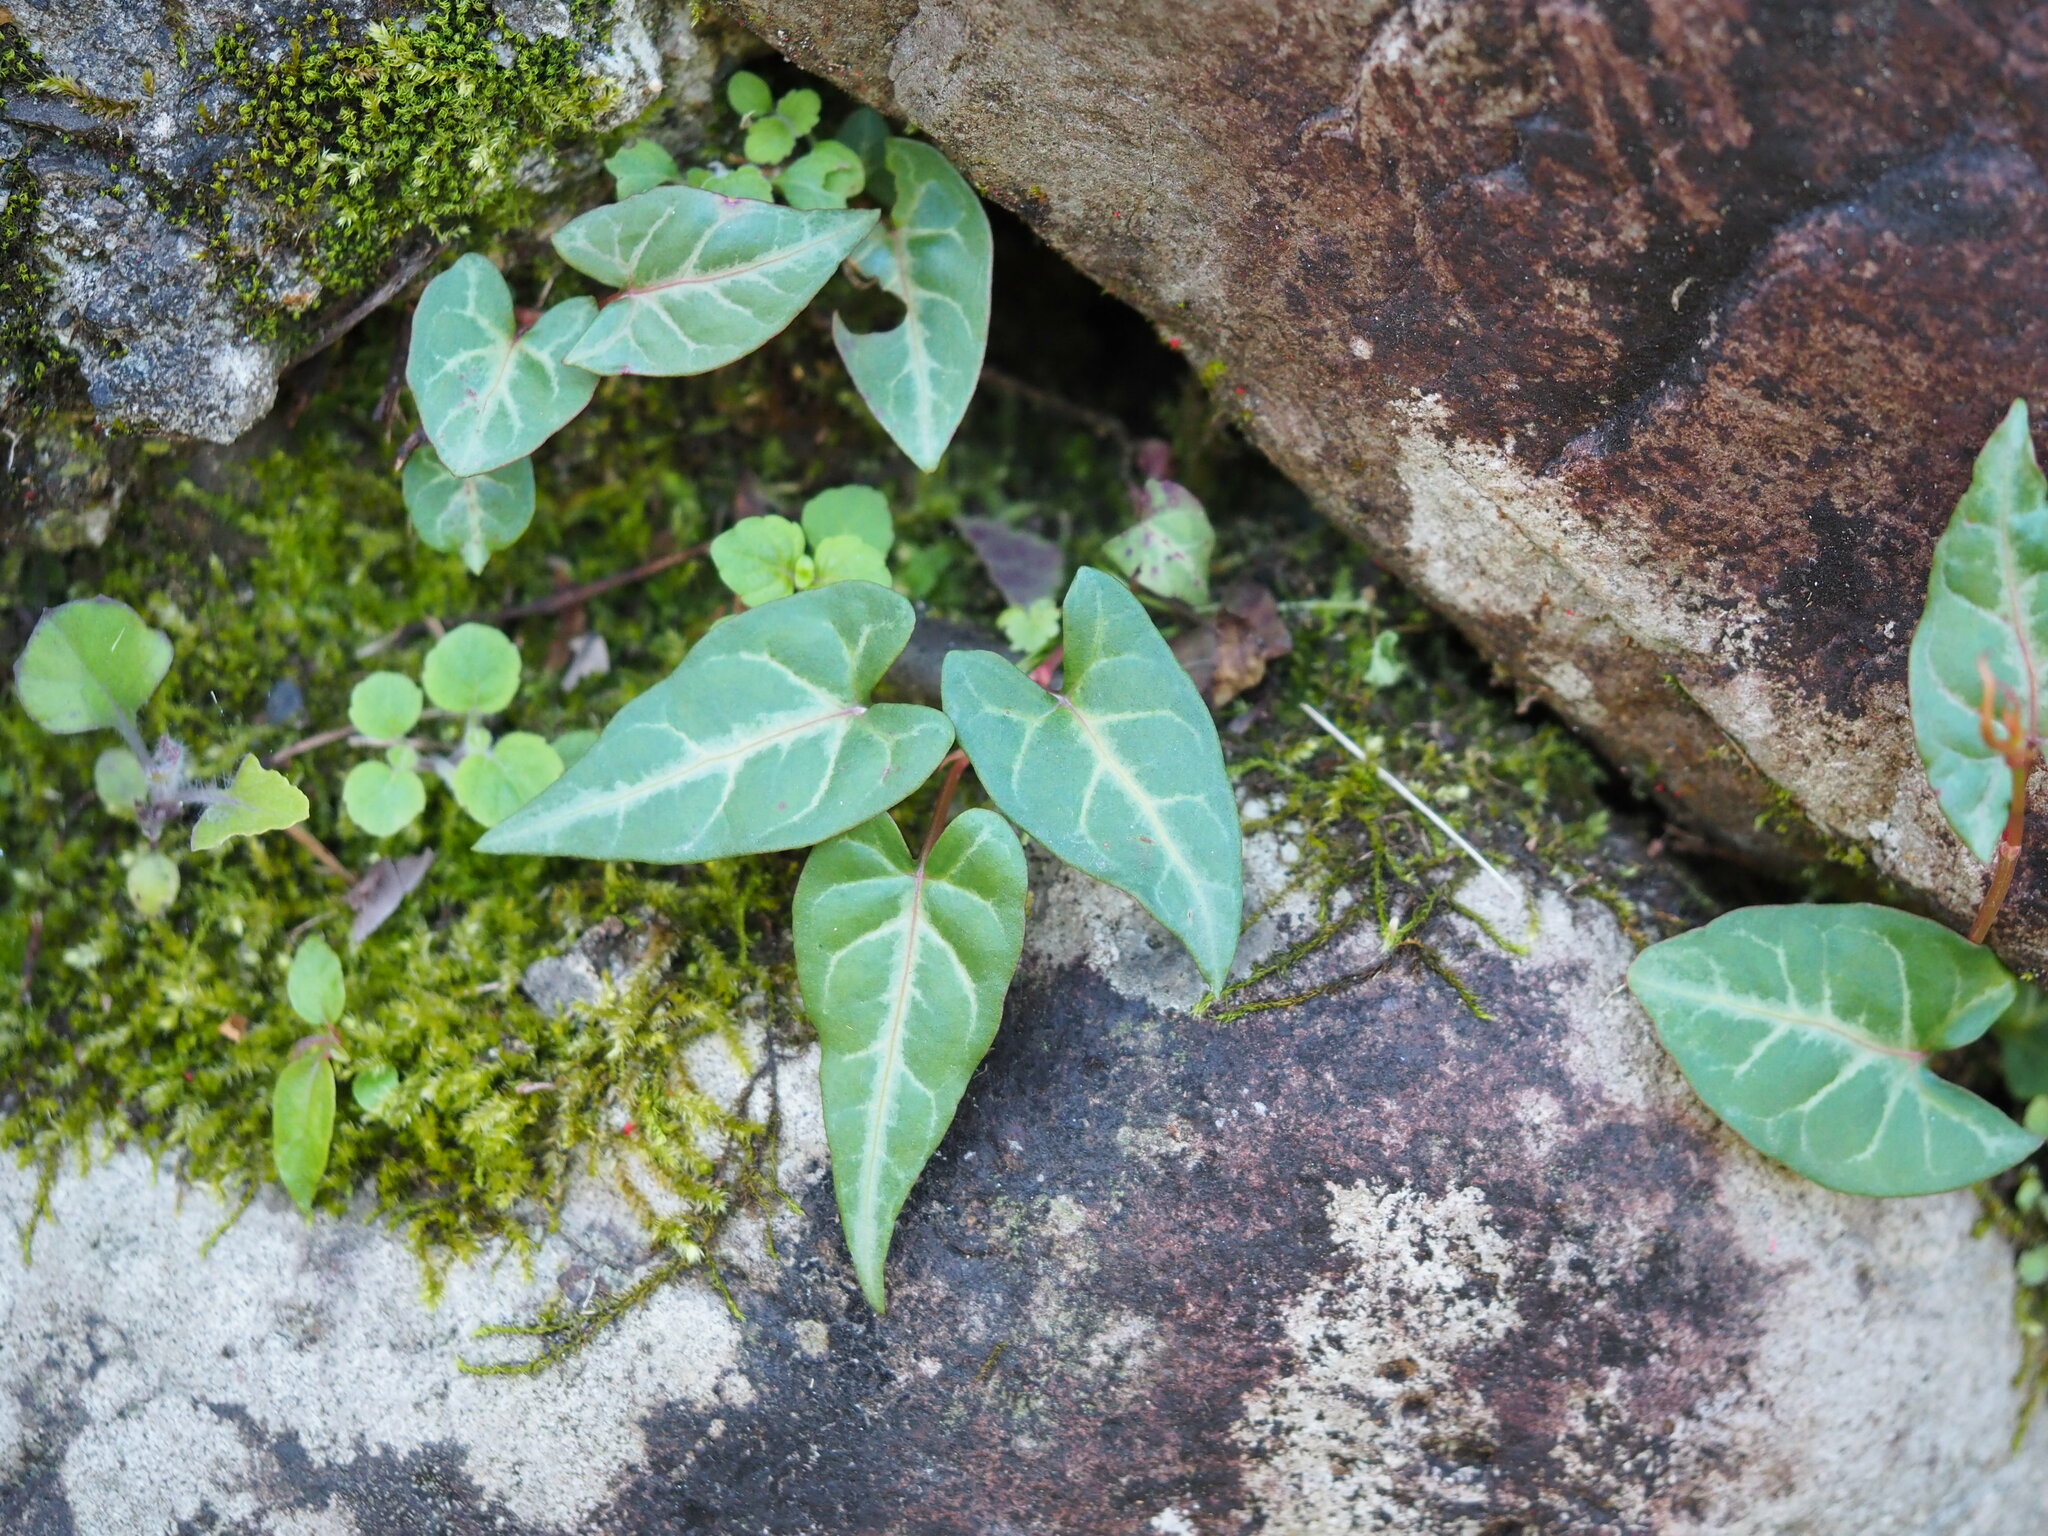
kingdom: Plantae
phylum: Tracheophyta
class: Magnoliopsida
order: Caryophyllales
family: Polygonaceae
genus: Reynoutria
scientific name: Reynoutria multiflora
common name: Chinese fleeceflower
